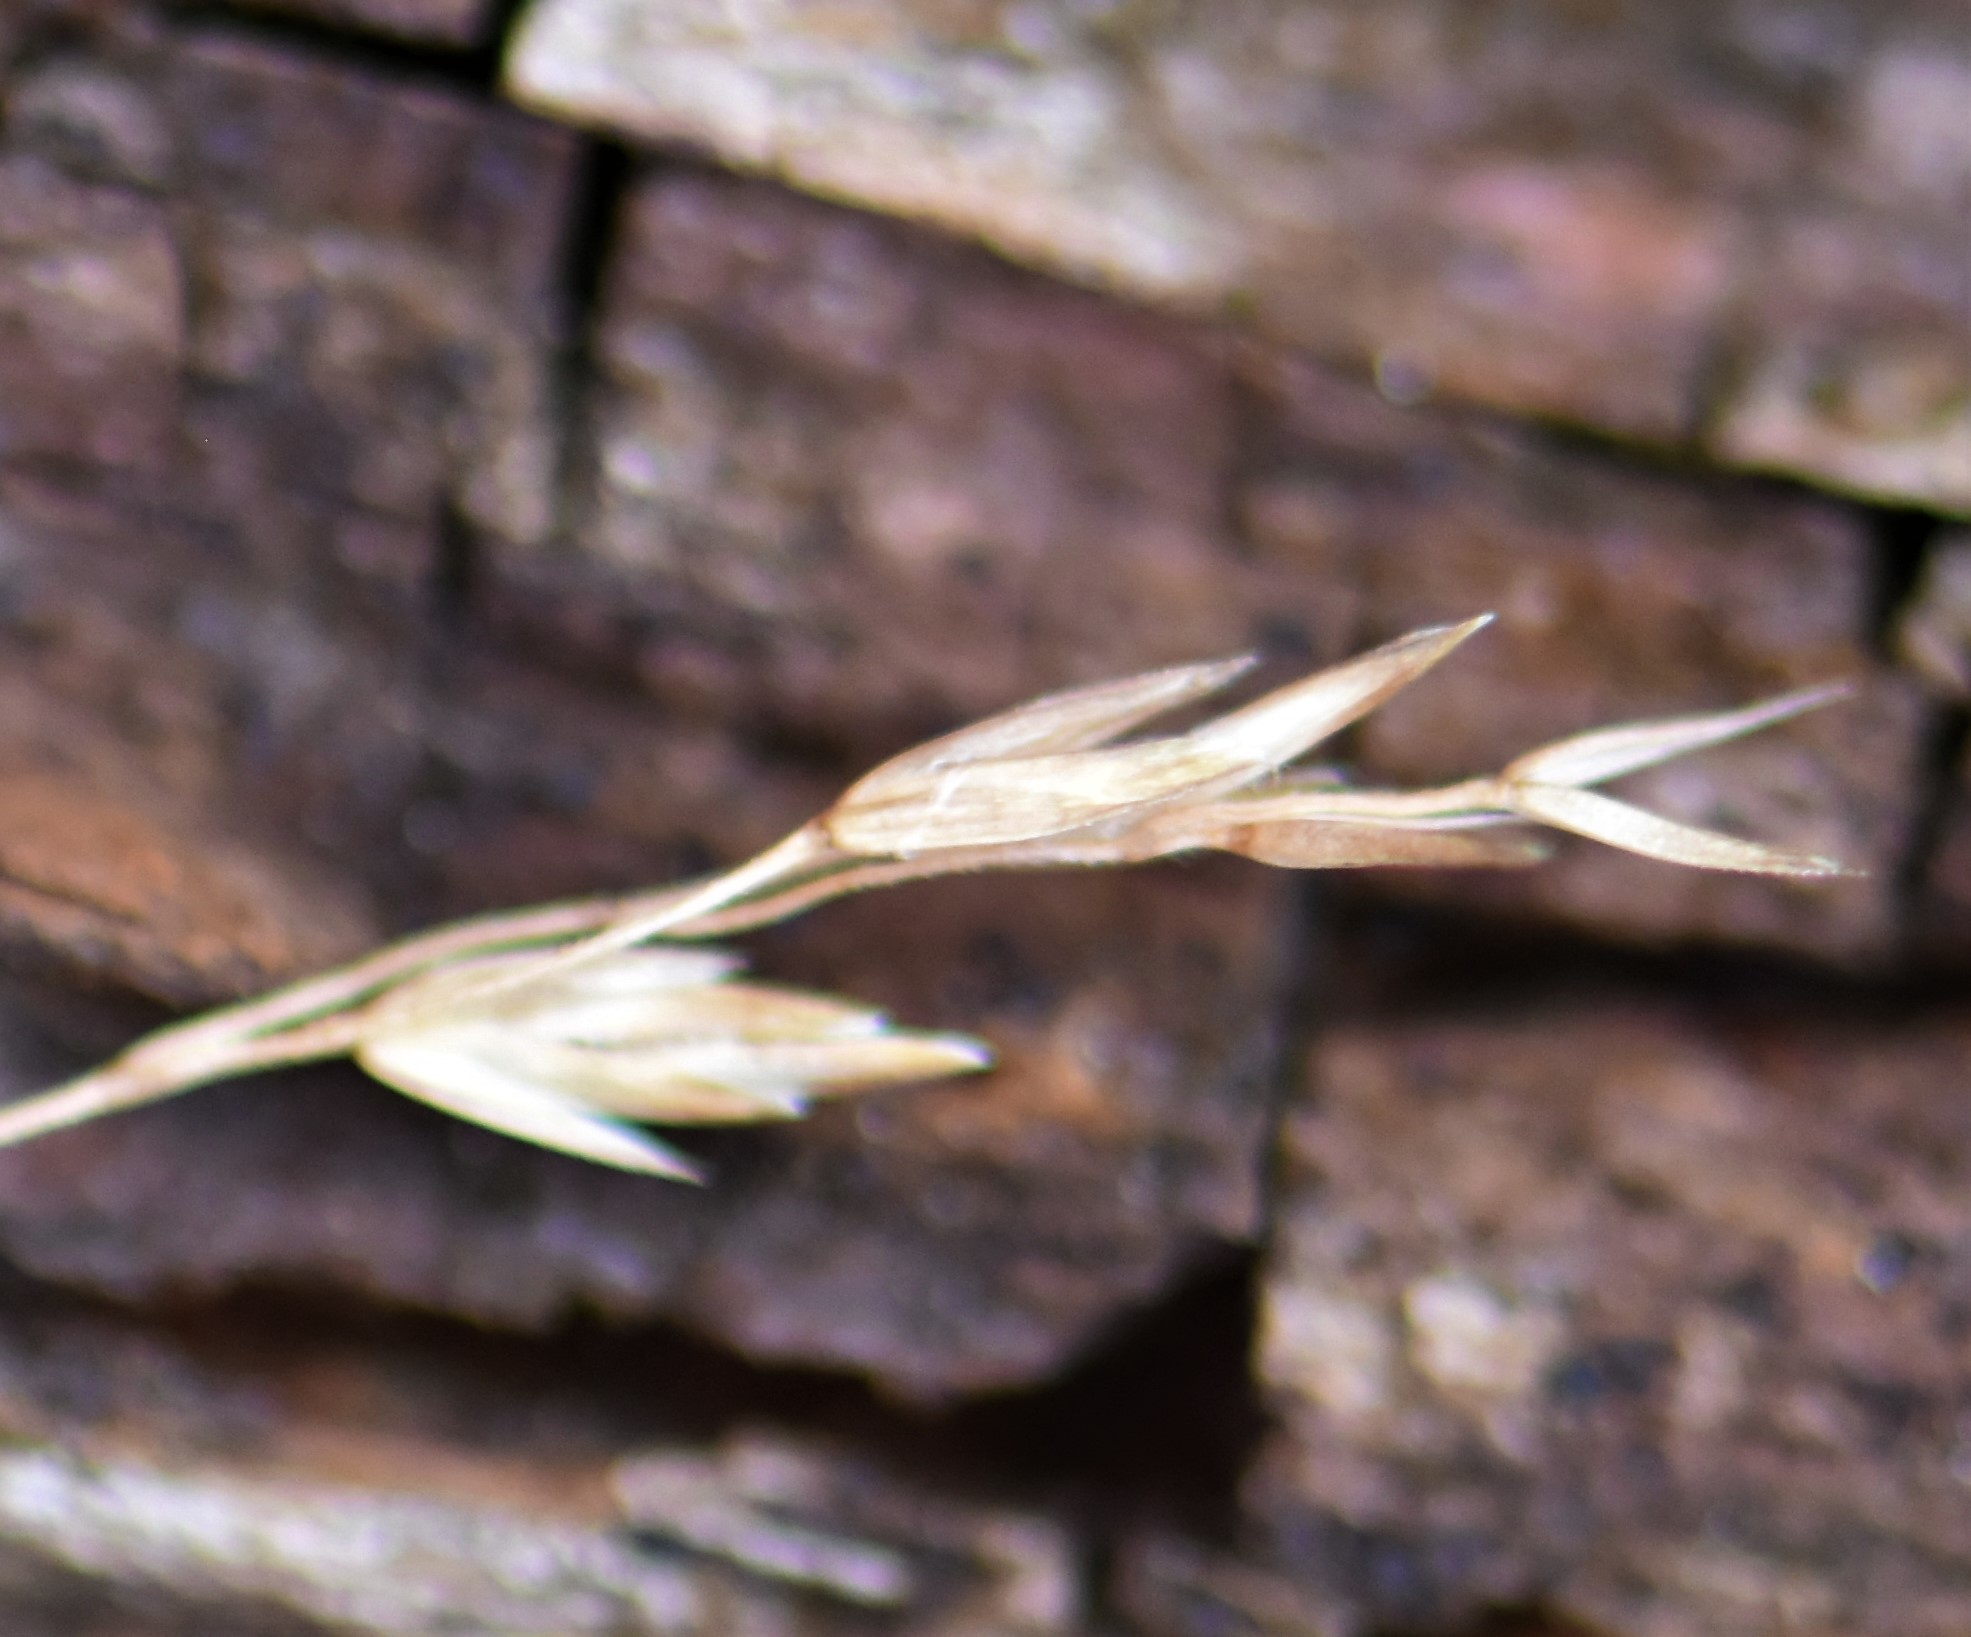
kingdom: Plantae
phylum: Tracheophyta
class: Liliopsida
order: Poales
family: Poaceae
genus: Poa
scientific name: Poa palustris
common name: Swamp meadow-grass
